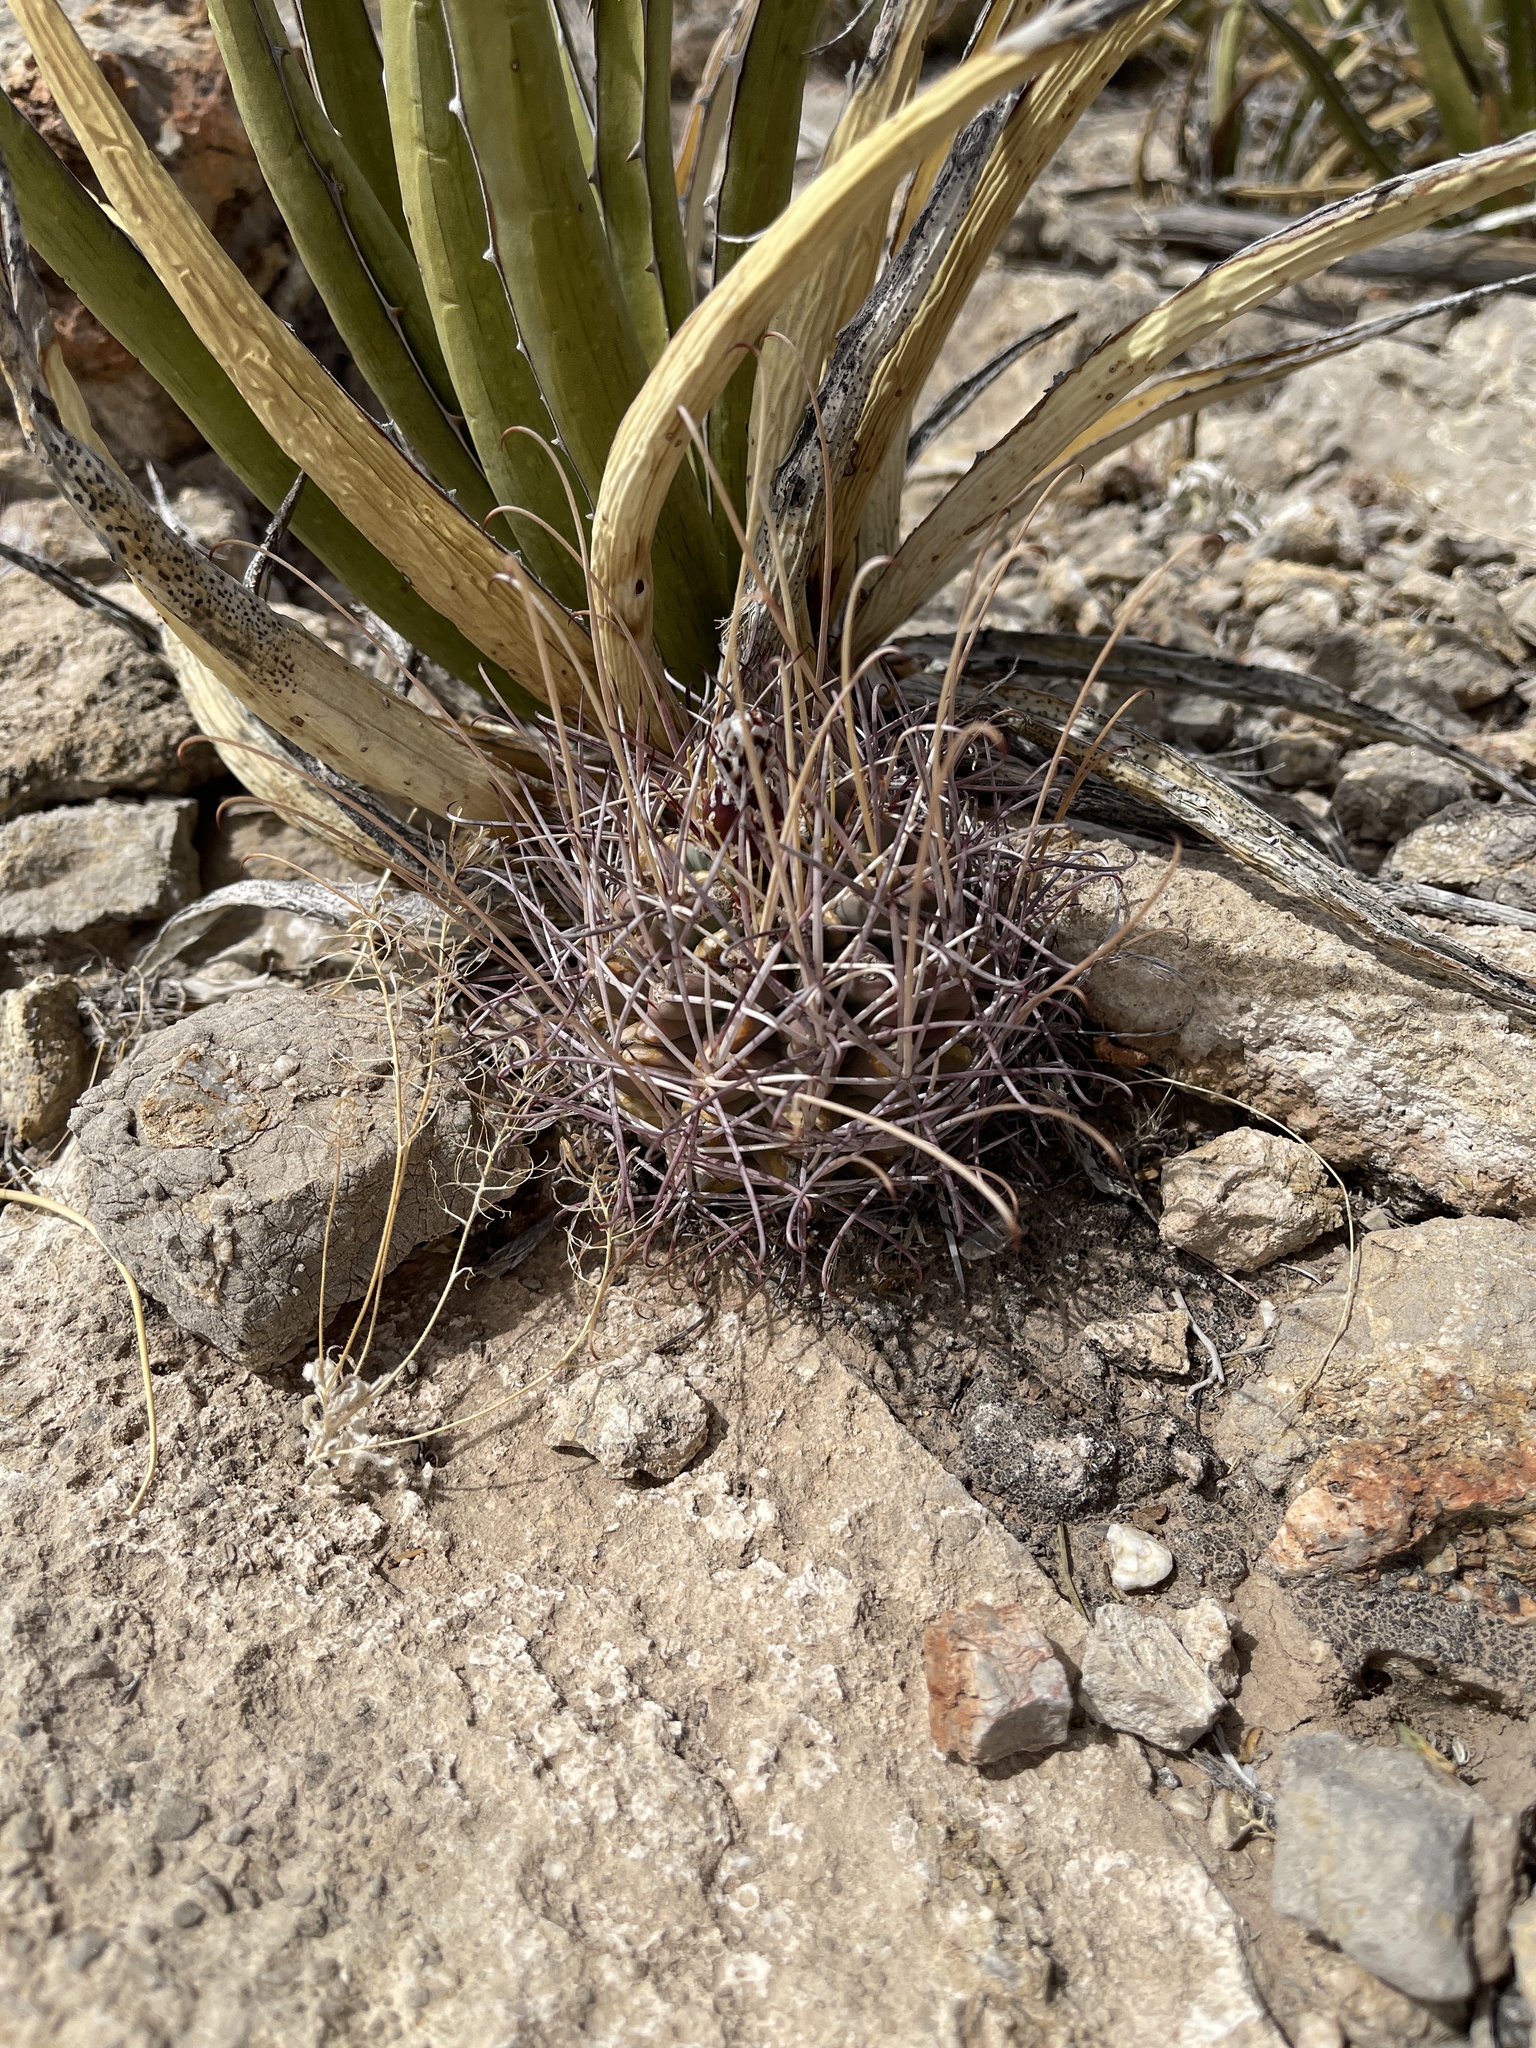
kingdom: Plantae
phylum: Tracheophyta
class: Magnoliopsida
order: Caryophyllales
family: Cactaceae
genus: Ferocactus
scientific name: Ferocactus uncinatus
